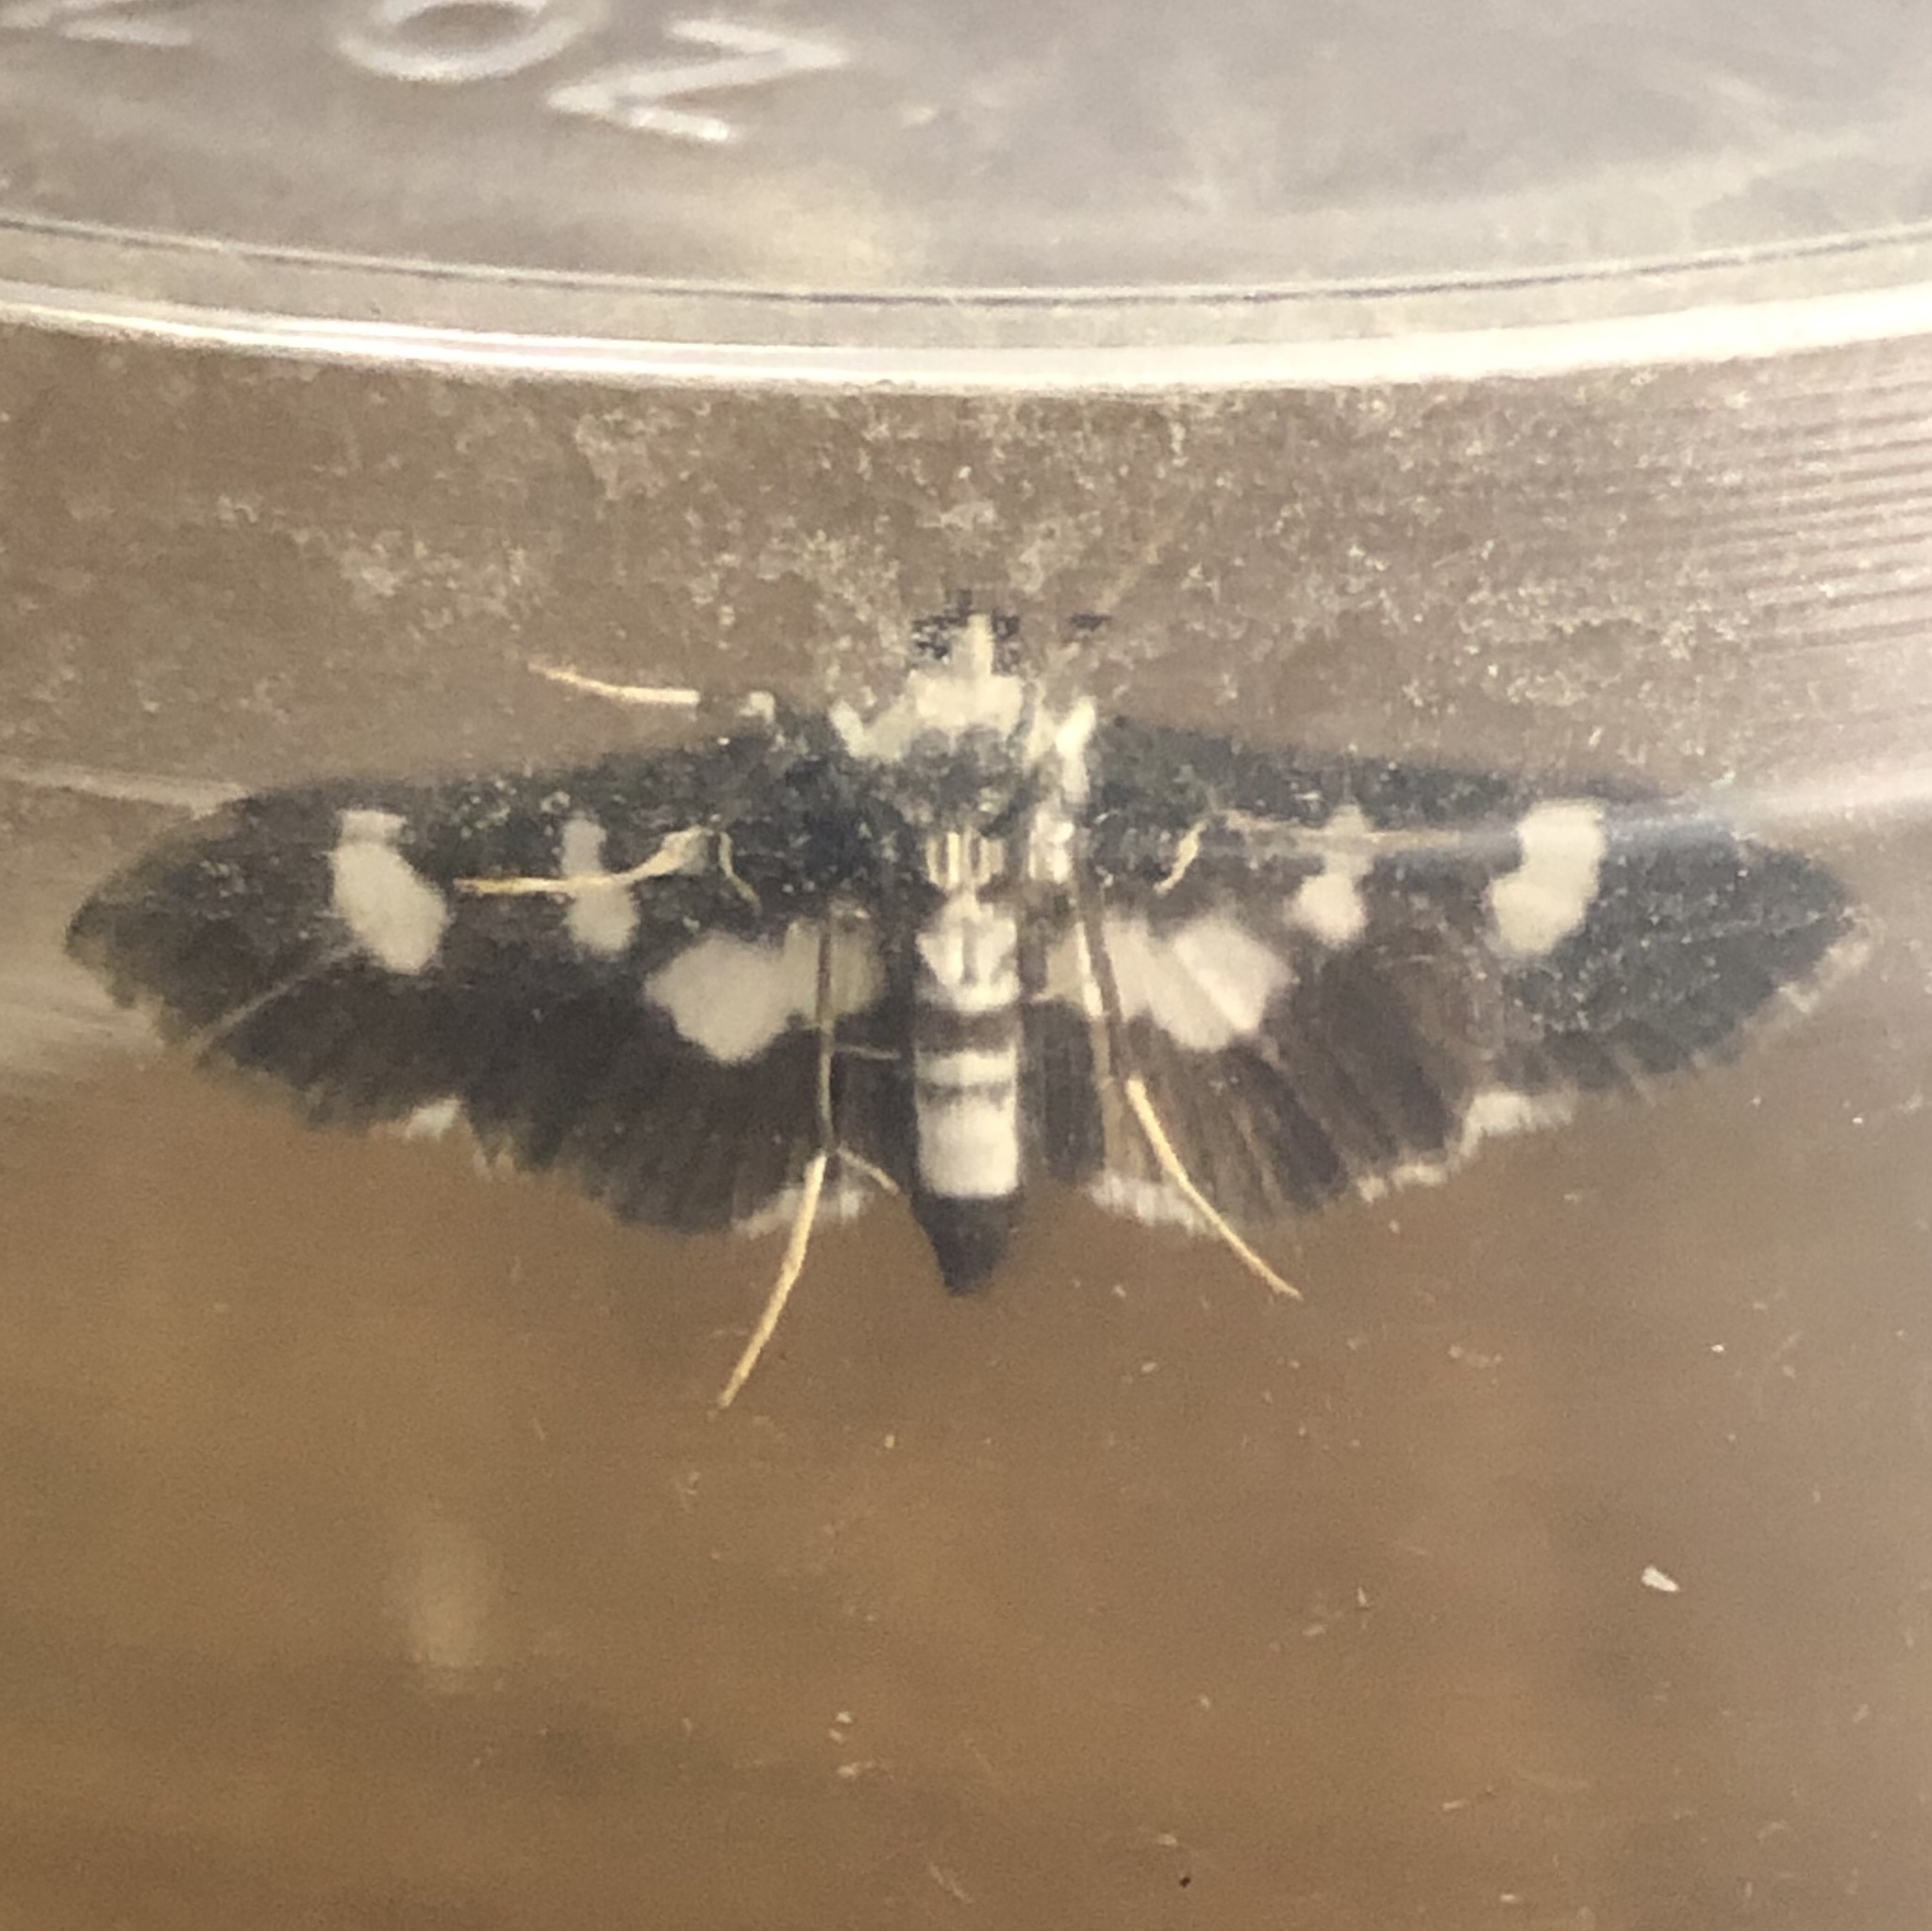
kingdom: Animalia
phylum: Arthropoda
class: Insecta
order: Lepidoptera
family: Crambidae
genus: Desmia
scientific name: Desmia funeralis
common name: Grape leaf folder moth
